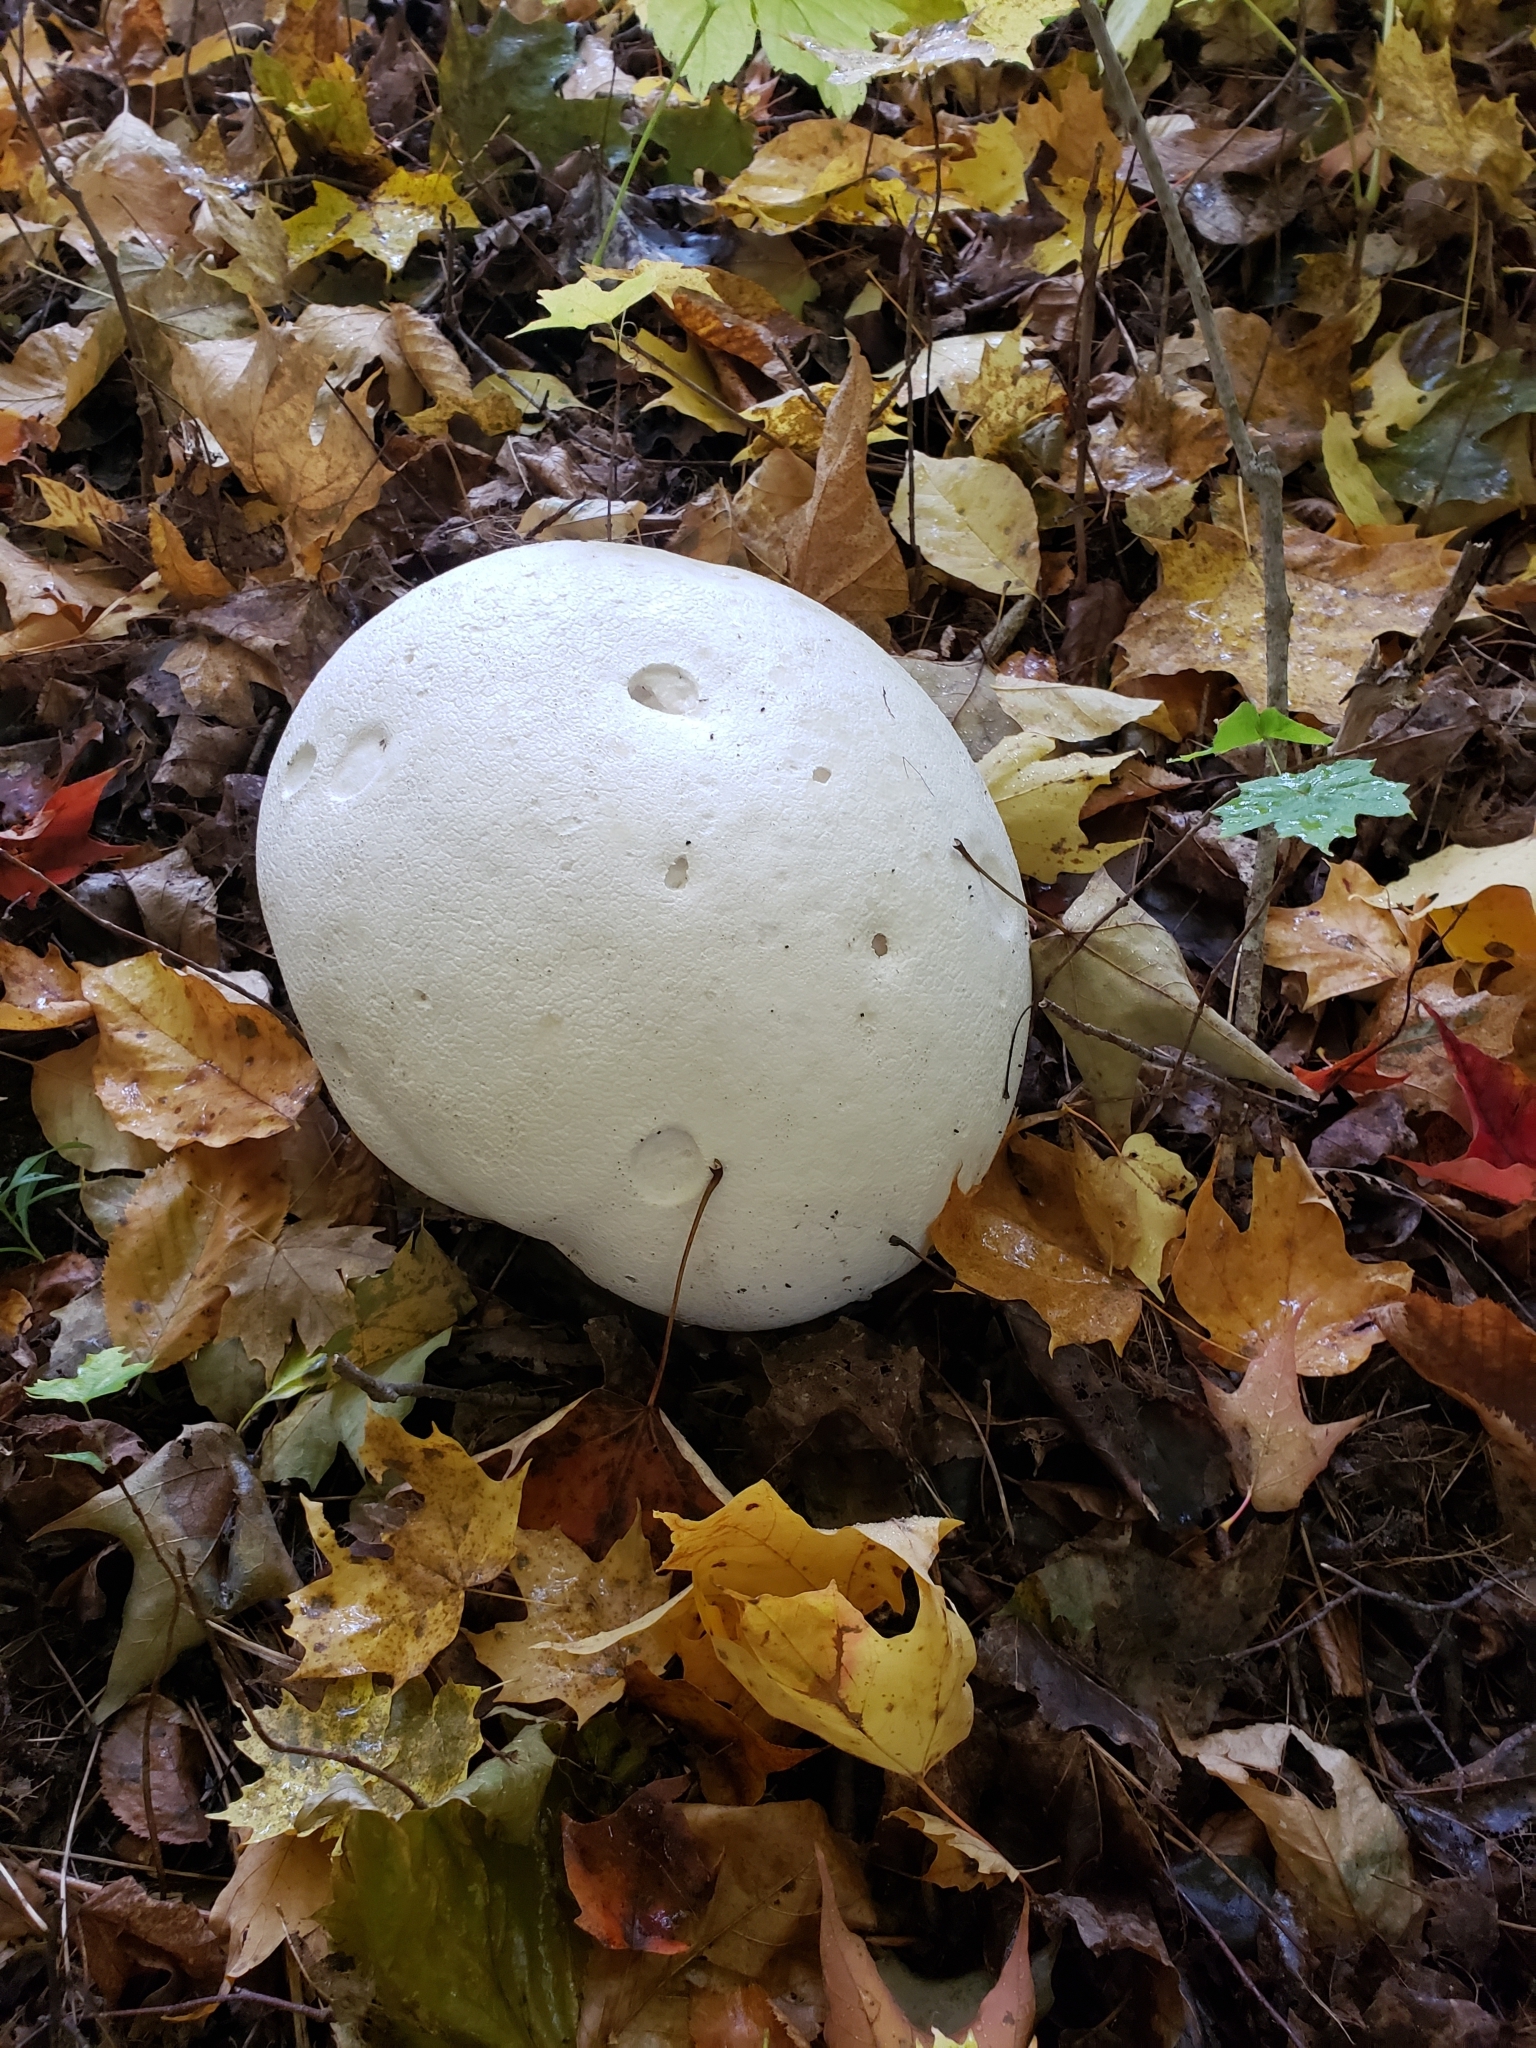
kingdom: Fungi
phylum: Basidiomycota
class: Agaricomycetes
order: Agaricales
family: Lycoperdaceae
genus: Calvatia
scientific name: Calvatia gigantea
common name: Giant puffball
